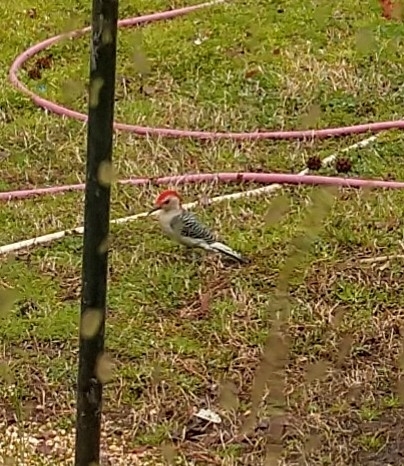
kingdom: Animalia
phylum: Chordata
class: Aves
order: Piciformes
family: Picidae
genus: Melanerpes
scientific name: Melanerpes carolinus
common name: Red-bellied woodpecker
